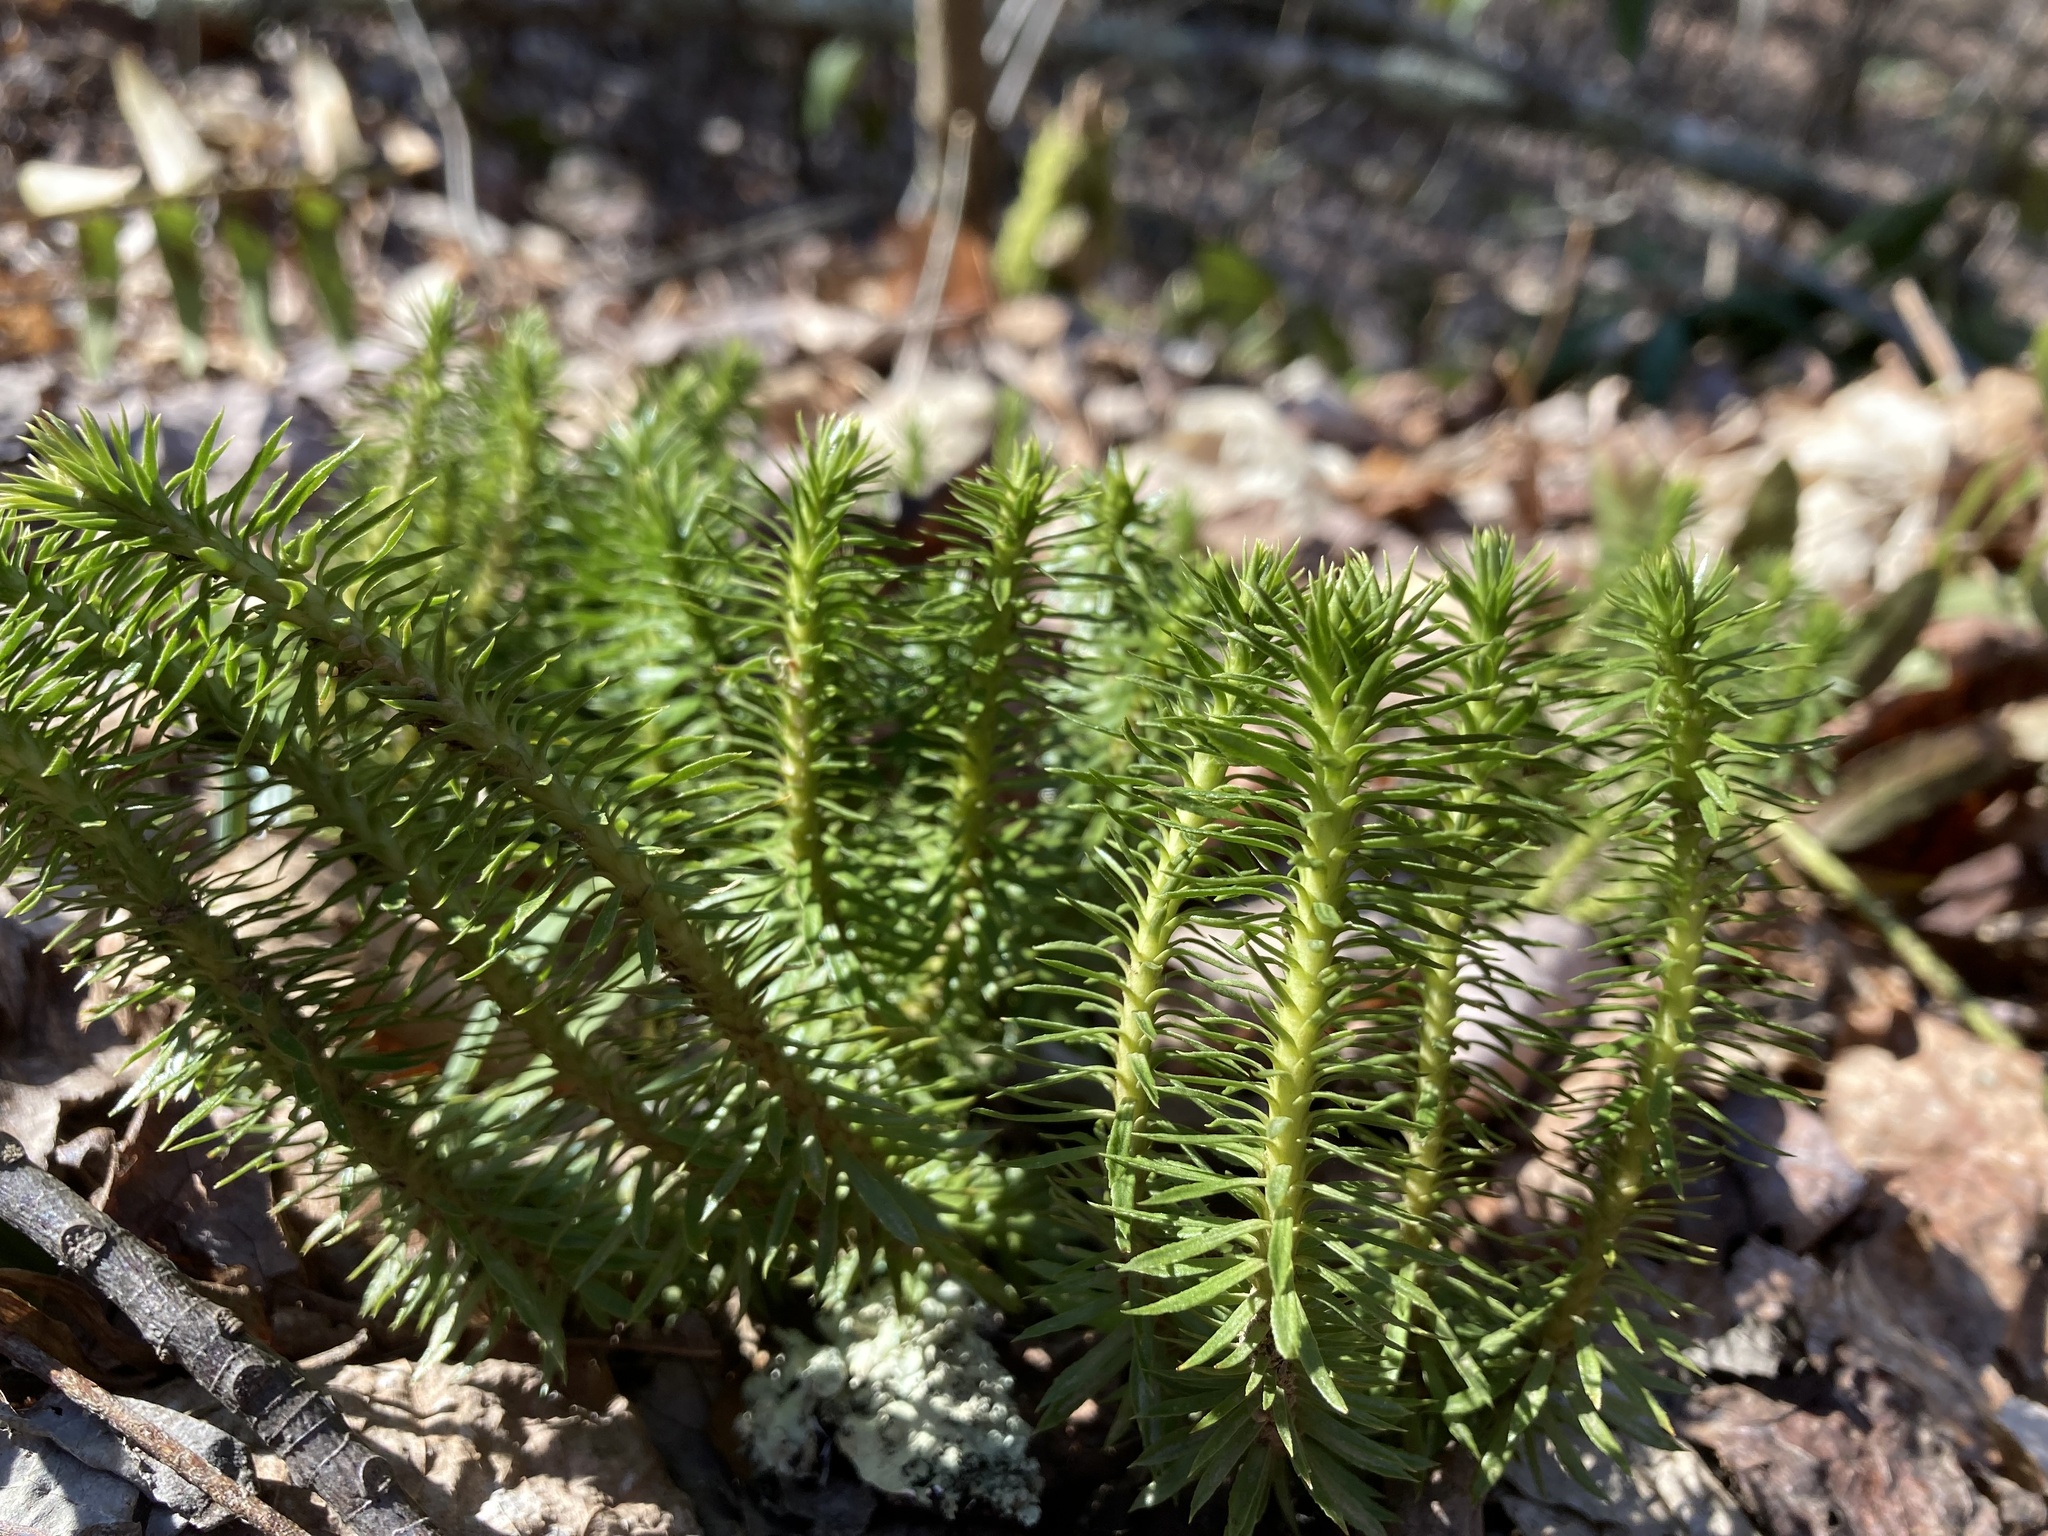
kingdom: Plantae
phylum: Tracheophyta
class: Lycopodiopsida
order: Lycopodiales
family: Lycopodiaceae
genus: Huperzia
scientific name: Huperzia lucidula
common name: Shining clubmoss
